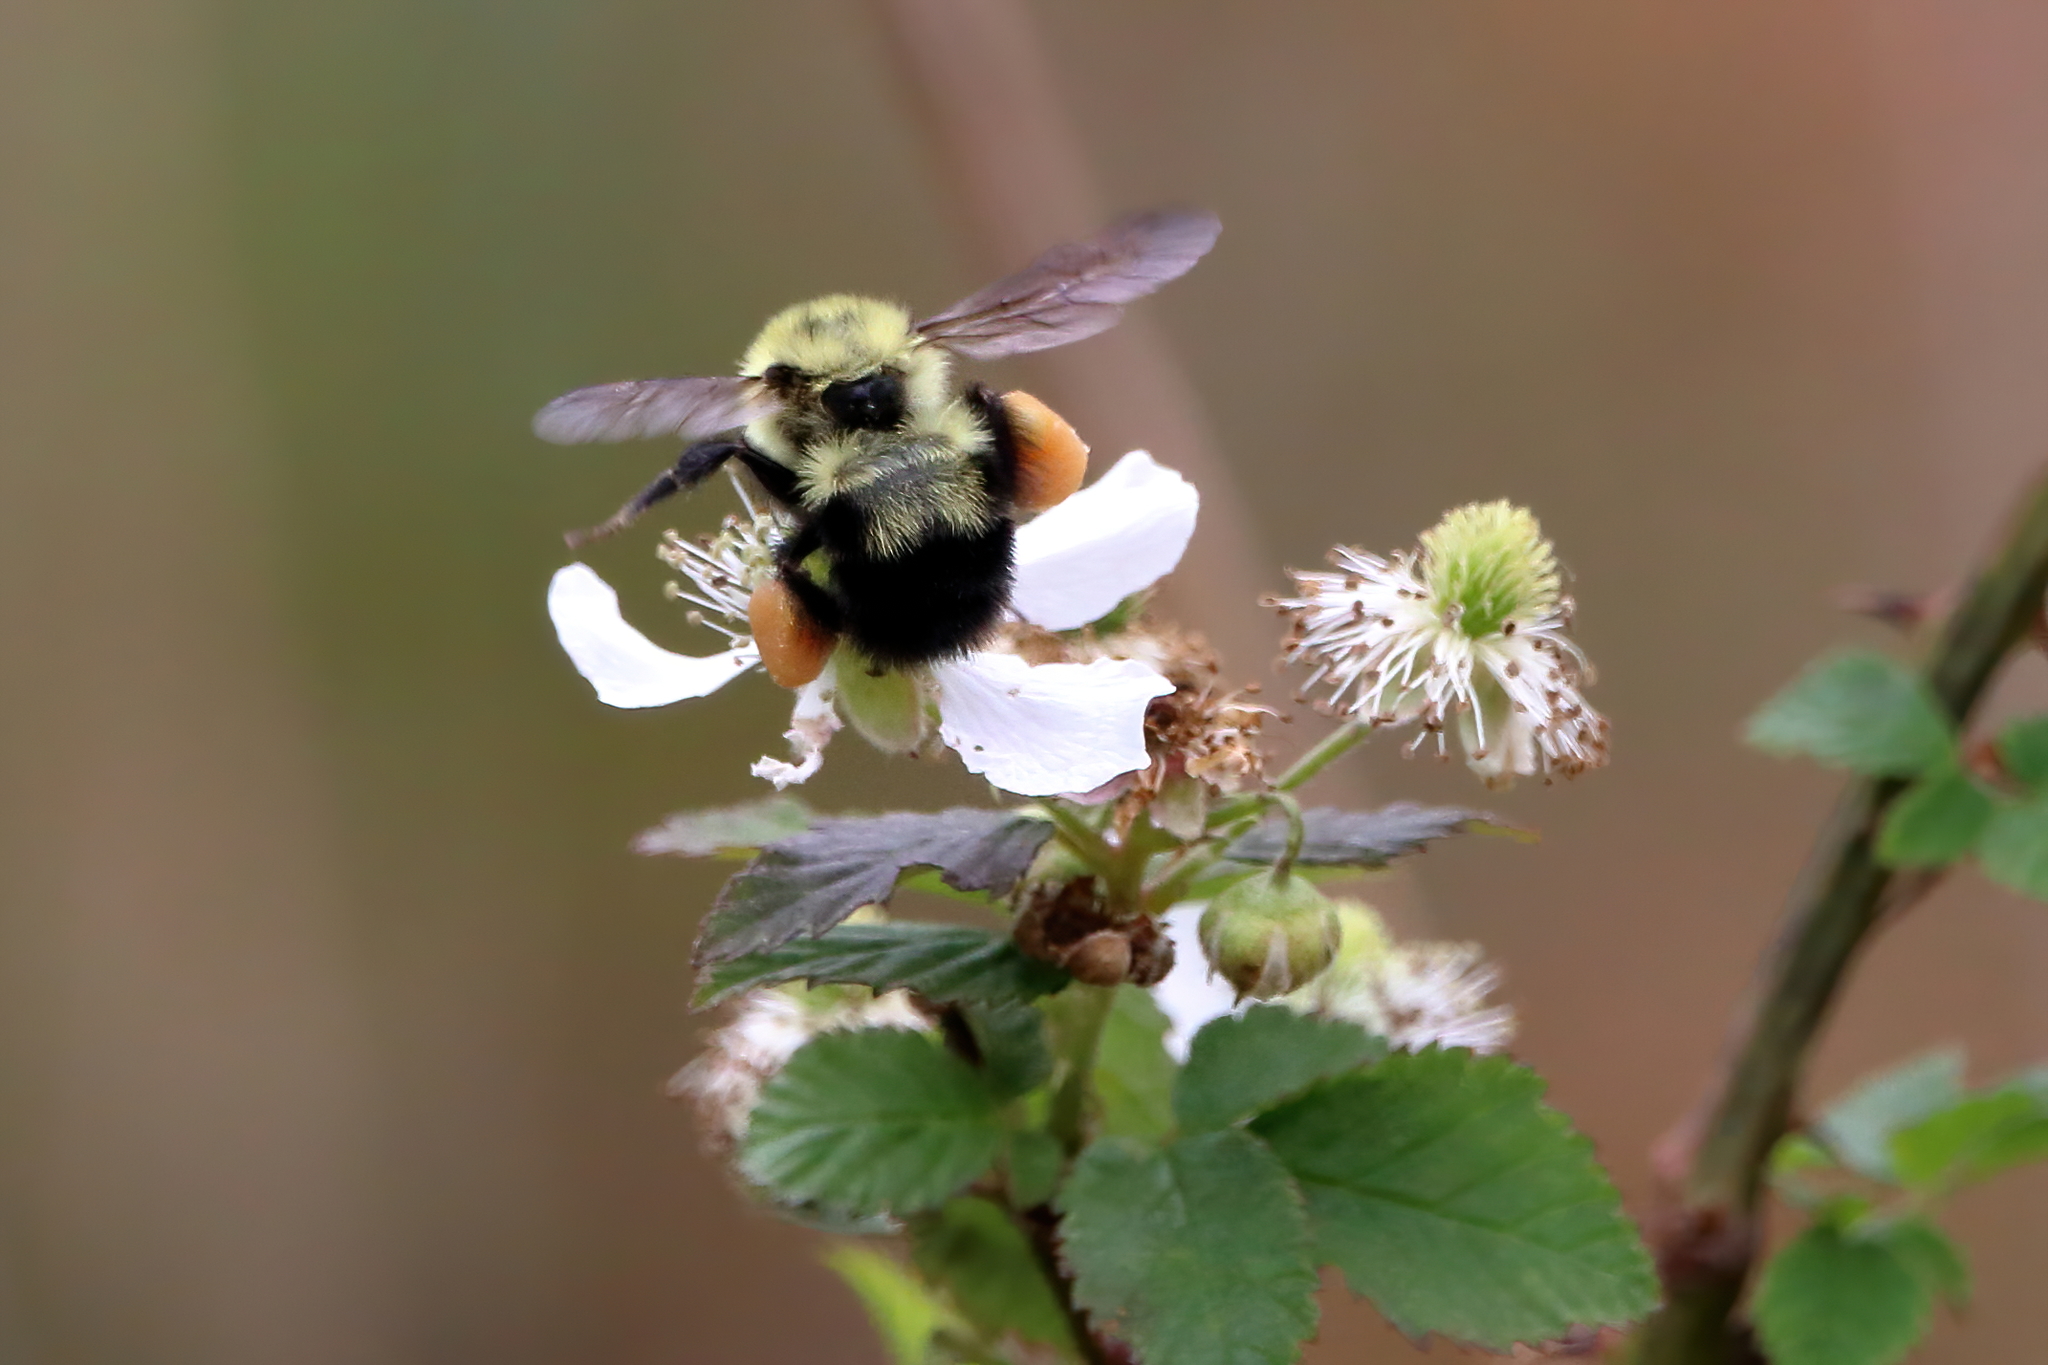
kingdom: Animalia
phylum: Arthropoda
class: Insecta
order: Hymenoptera
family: Apidae
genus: Bombus
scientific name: Bombus bimaculatus
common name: Two-spotted bumble bee
